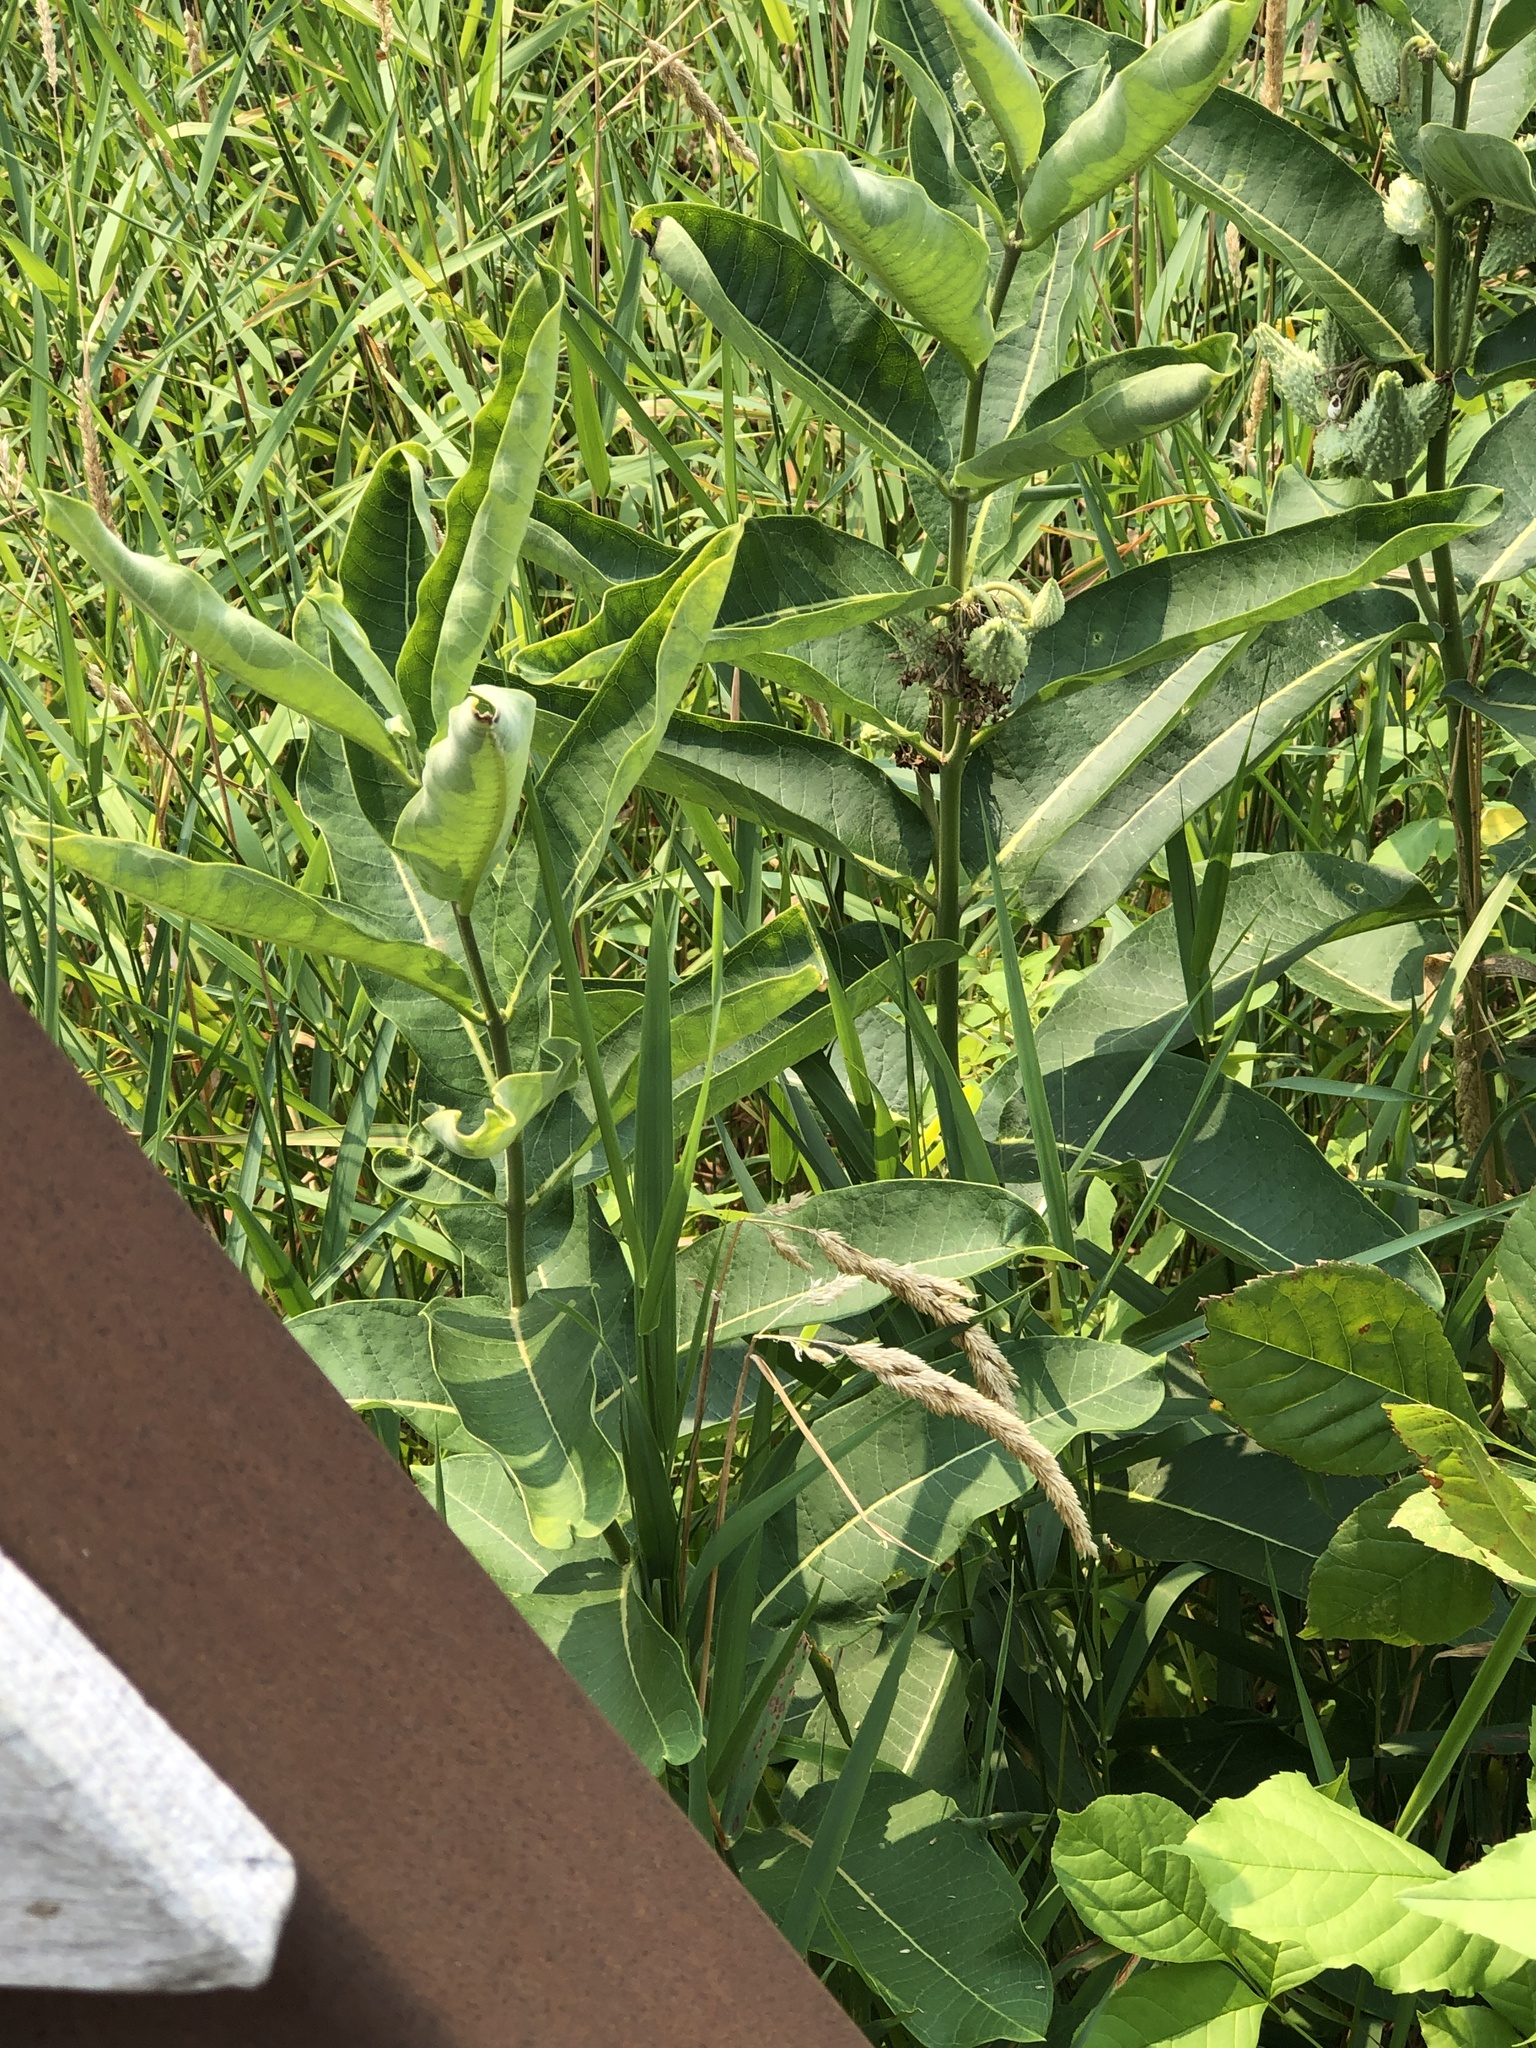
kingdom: Plantae
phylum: Tracheophyta
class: Magnoliopsida
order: Gentianales
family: Apocynaceae
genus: Asclepias
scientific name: Asclepias syriaca
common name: Common milkweed
